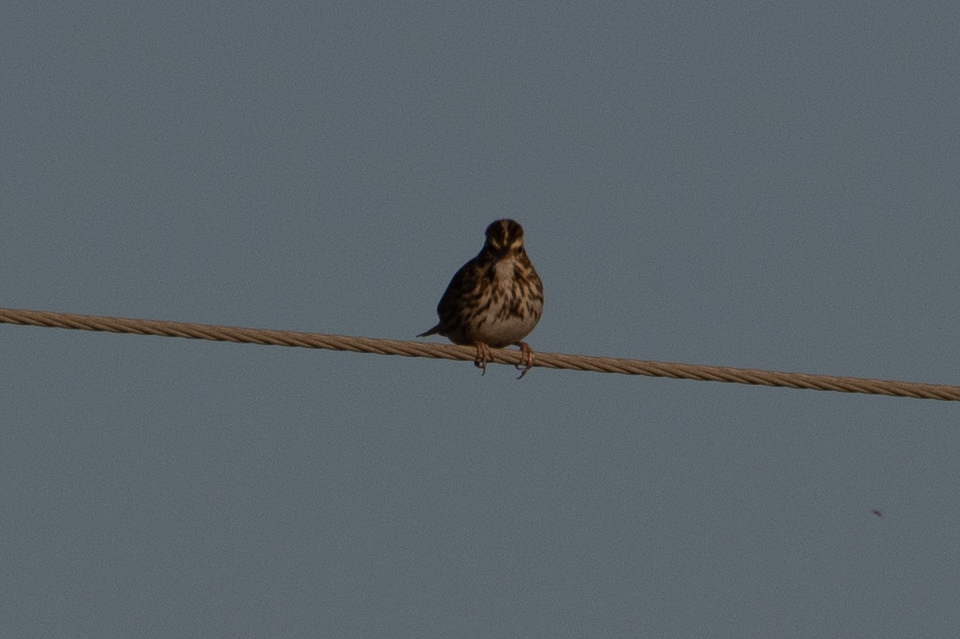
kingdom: Animalia
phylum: Chordata
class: Aves
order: Passeriformes
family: Passerellidae
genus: Passerculus
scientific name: Passerculus sandwichensis
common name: Savannah sparrow
